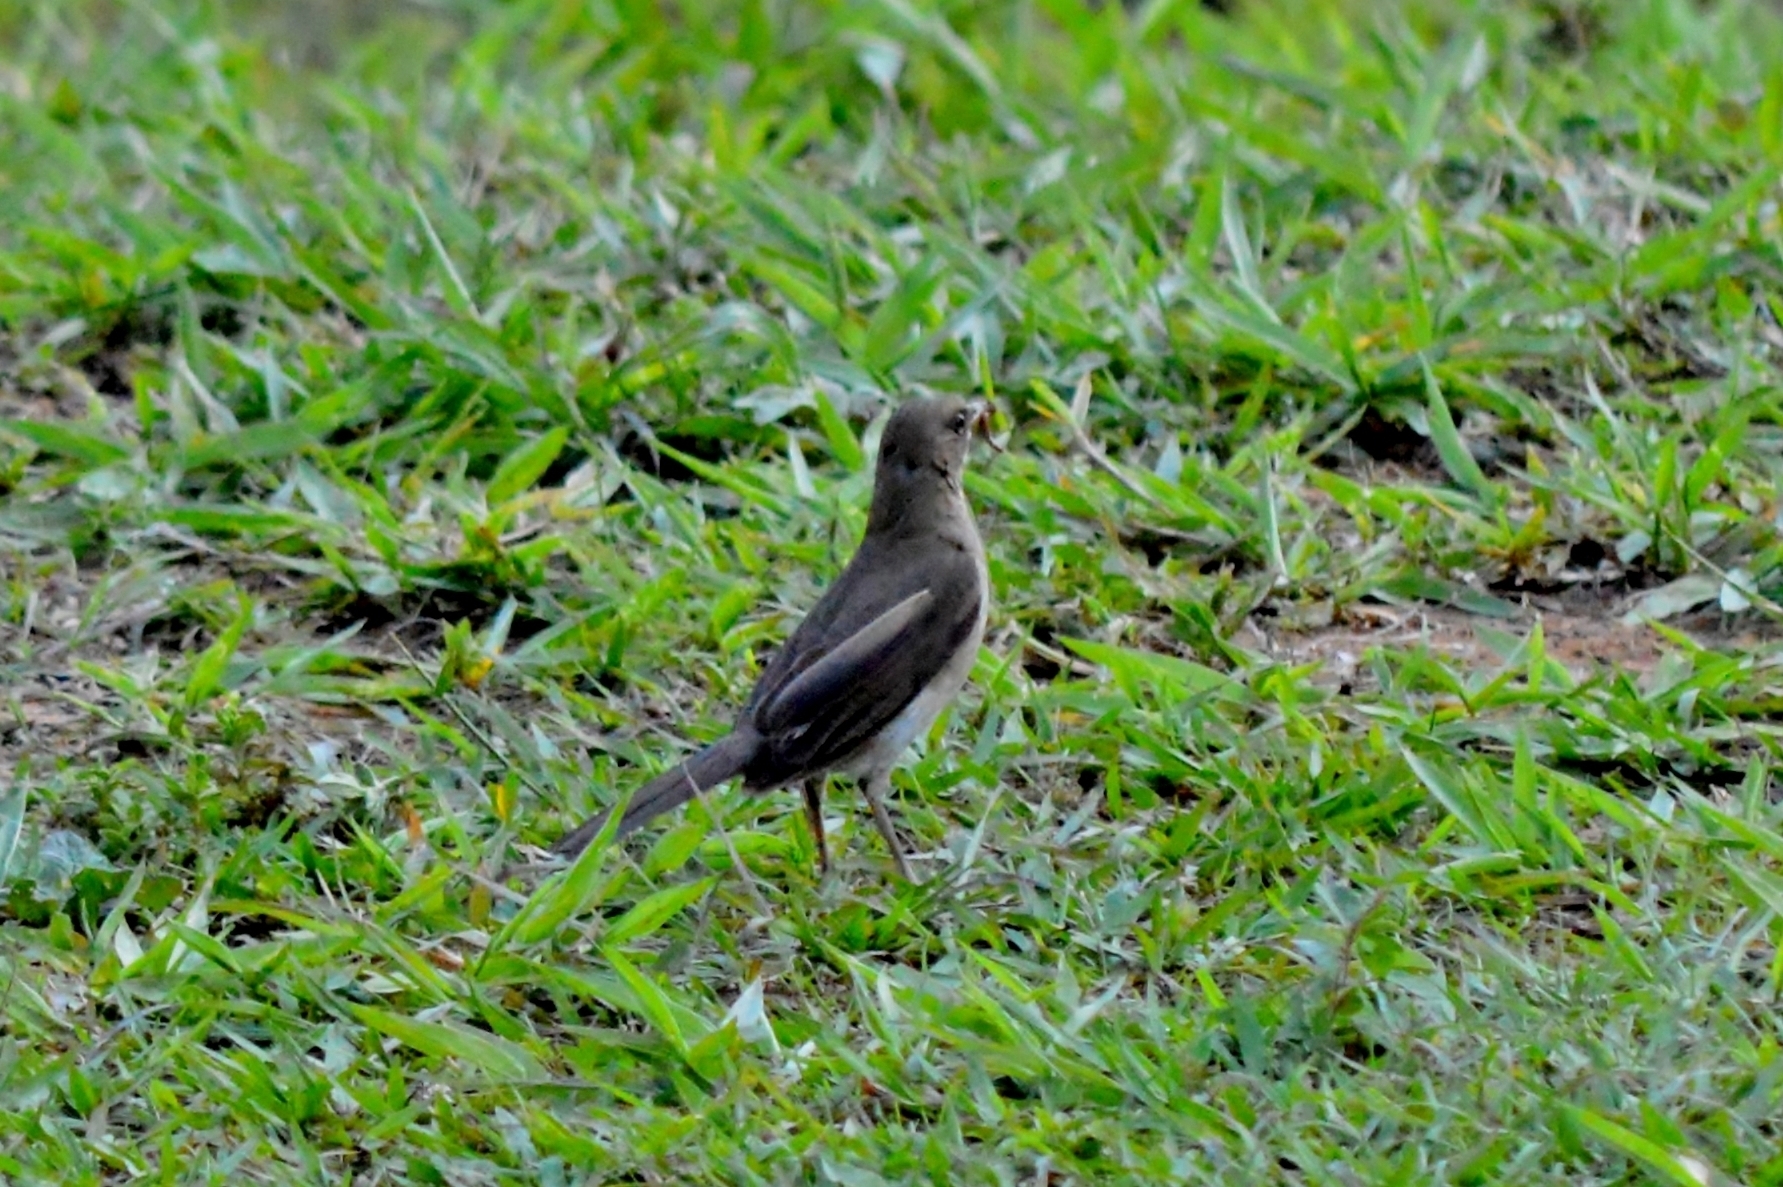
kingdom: Animalia
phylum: Chordata
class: Aves
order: Passeriformes
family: Turdidae
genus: Turdus
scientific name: Turdus amaurochalinus
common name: Creamy-bellied thrush
